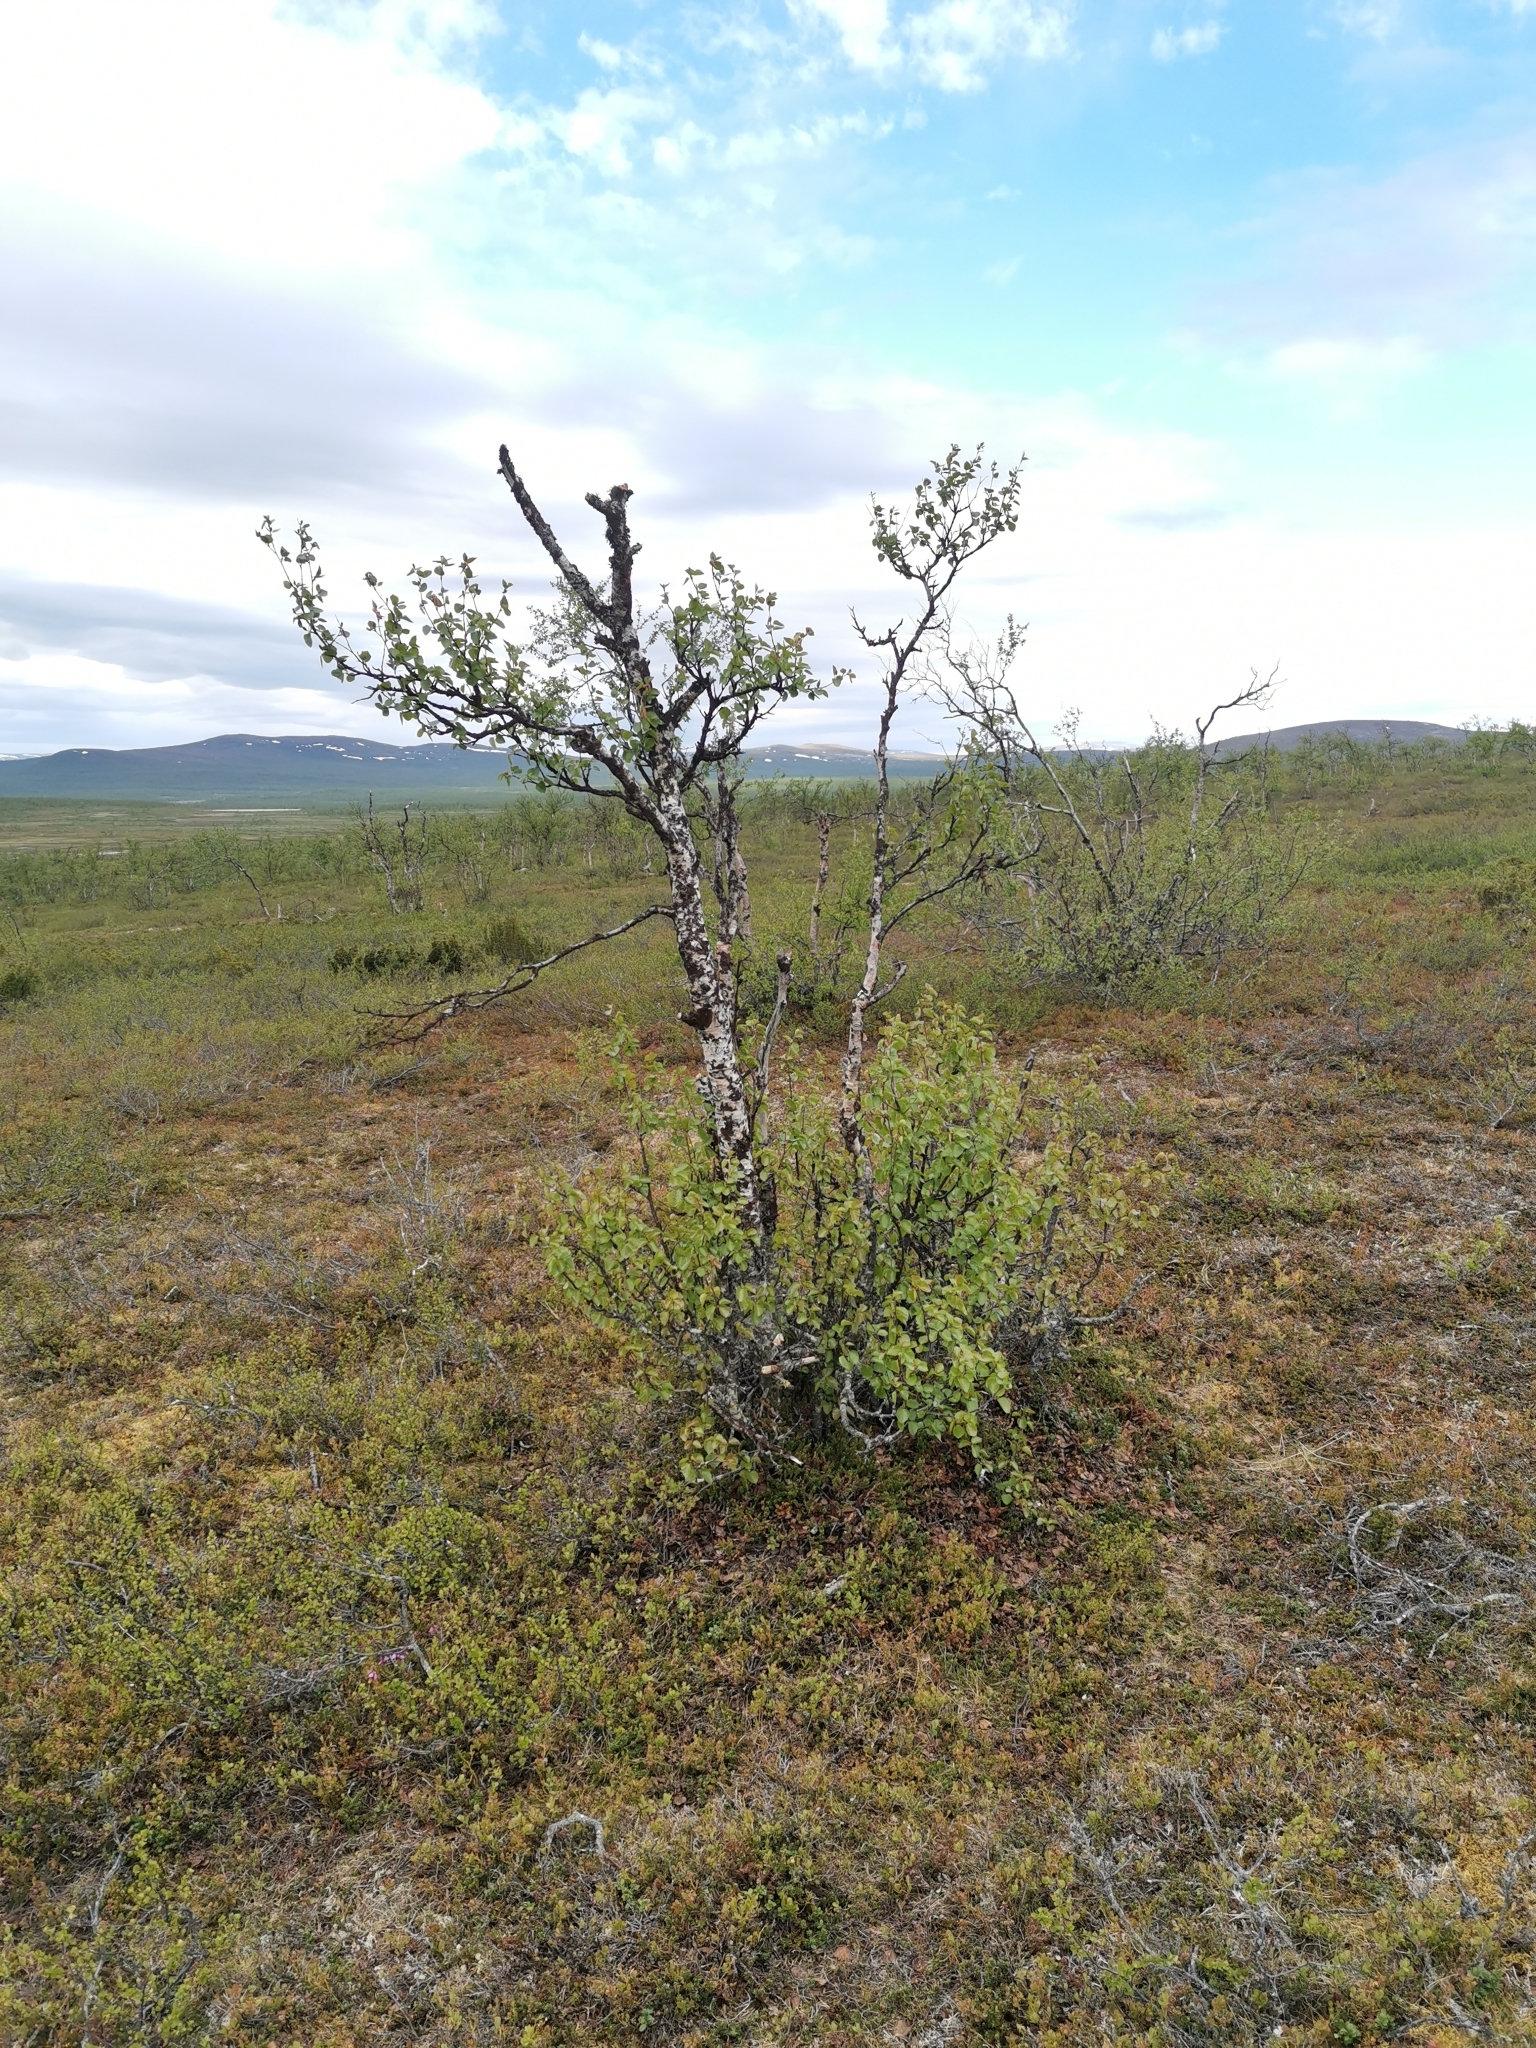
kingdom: Plantae
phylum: Tracheophyta
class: Magnoliopsida
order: Fagales
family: Betulaceae
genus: Betula
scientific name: Betula pubescens
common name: Downy birch
